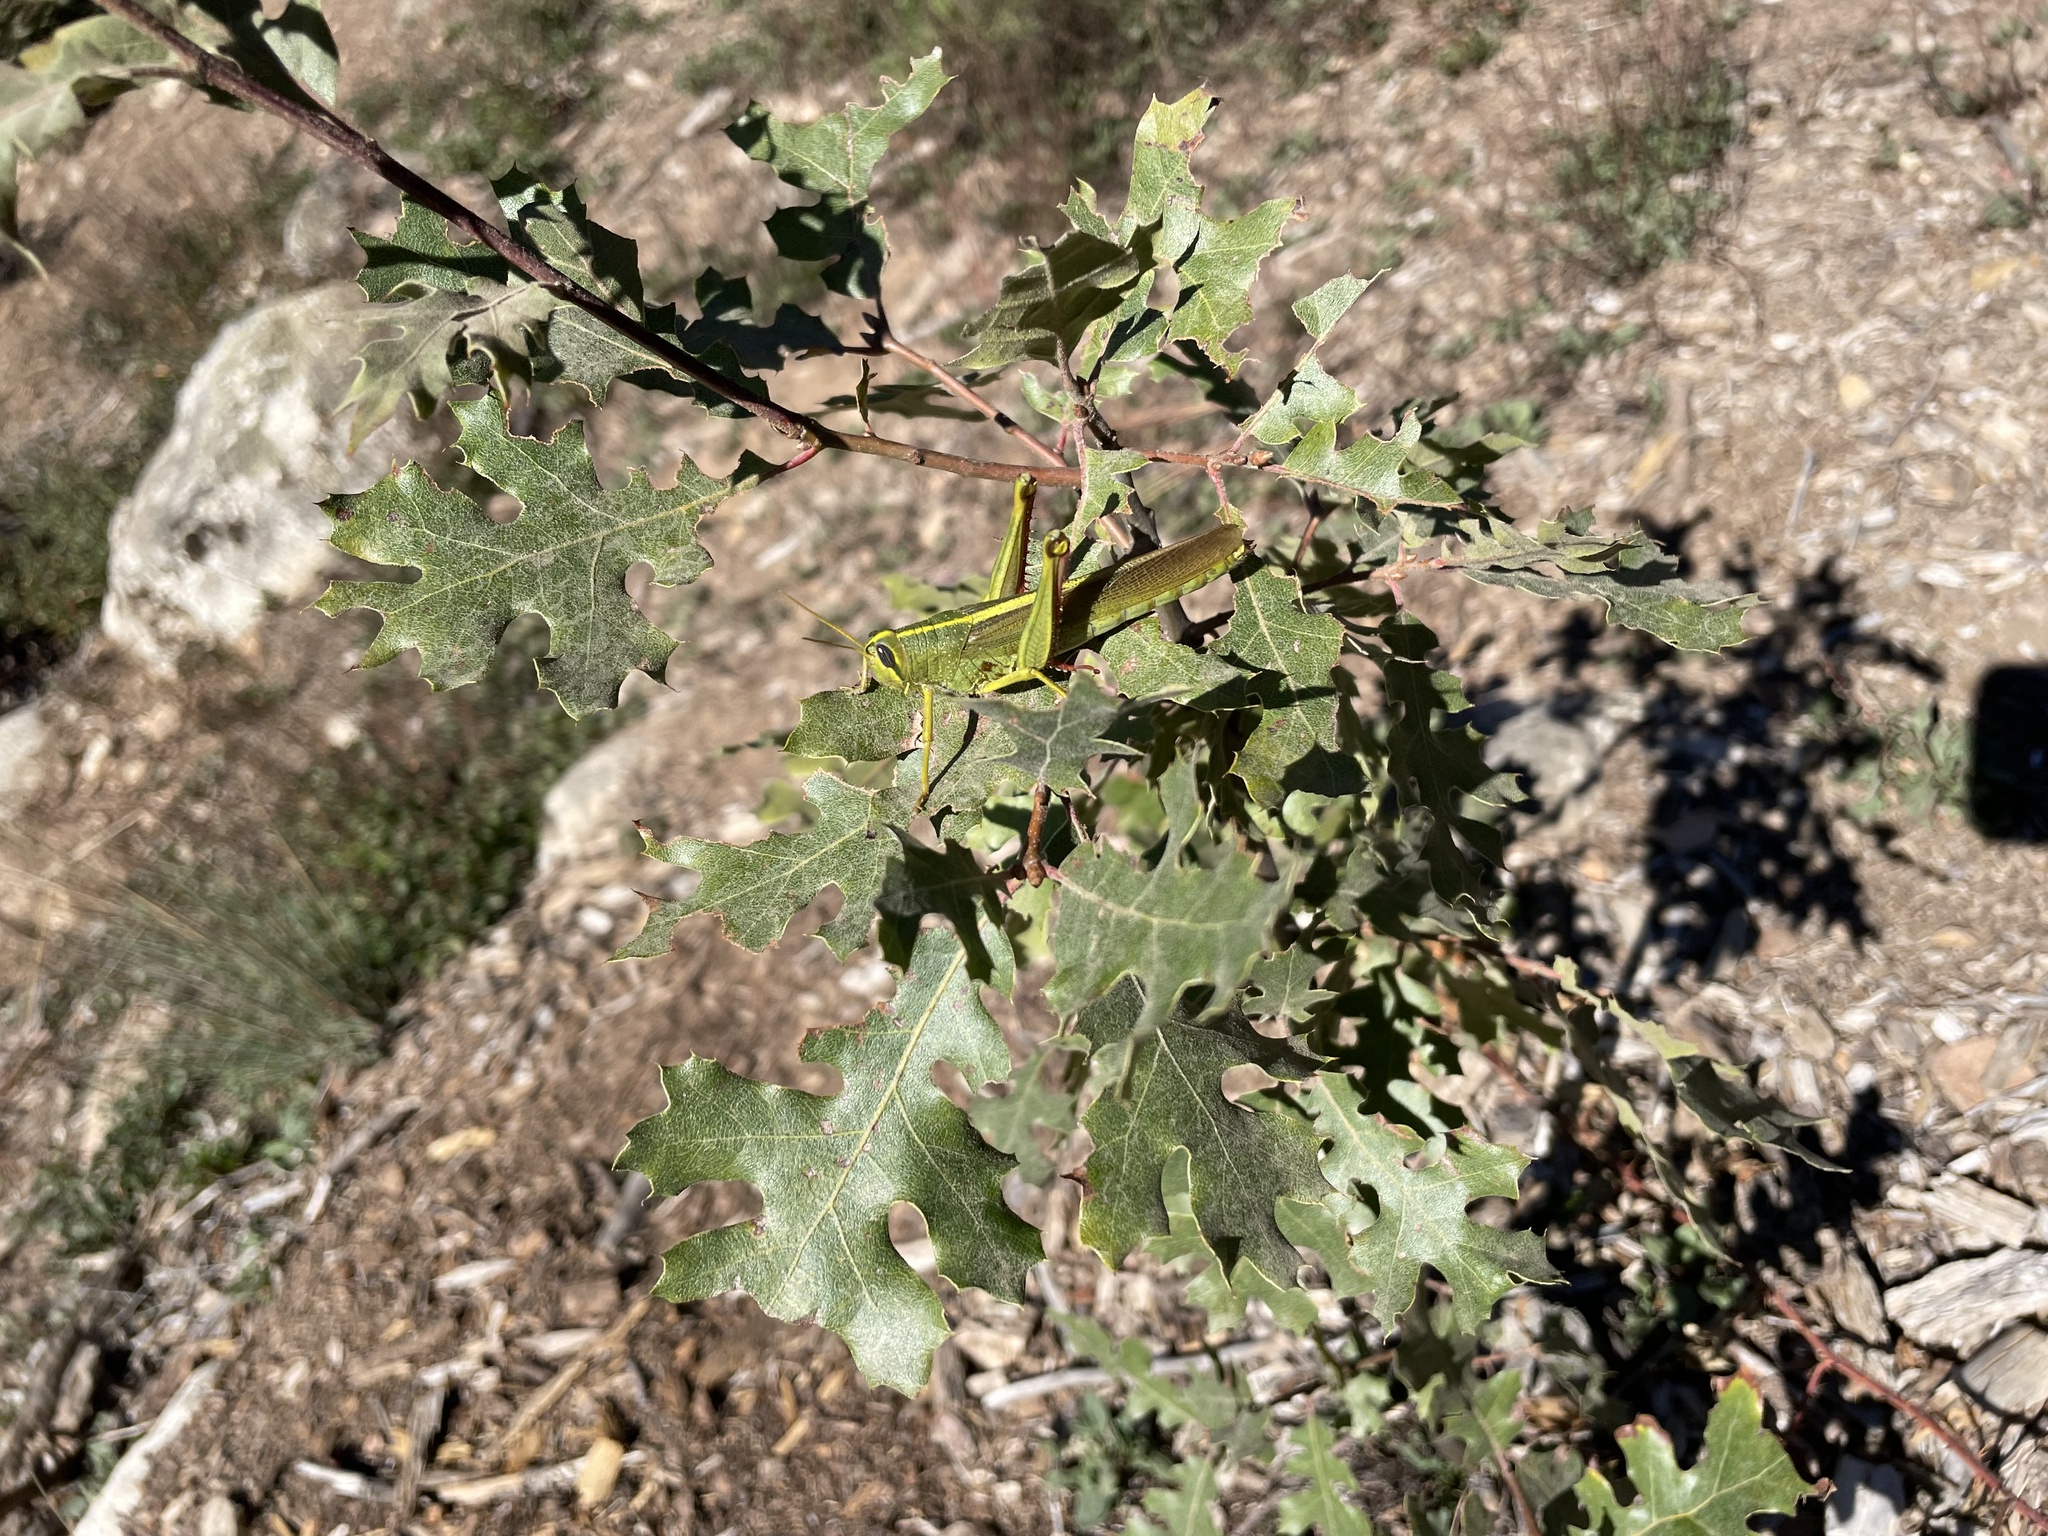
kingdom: Plantae
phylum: Tracheophyta
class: Magnoliopsida
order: Fagales
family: Fagaceae
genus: Quercus
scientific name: Quercus kelloggii
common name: California black oak
